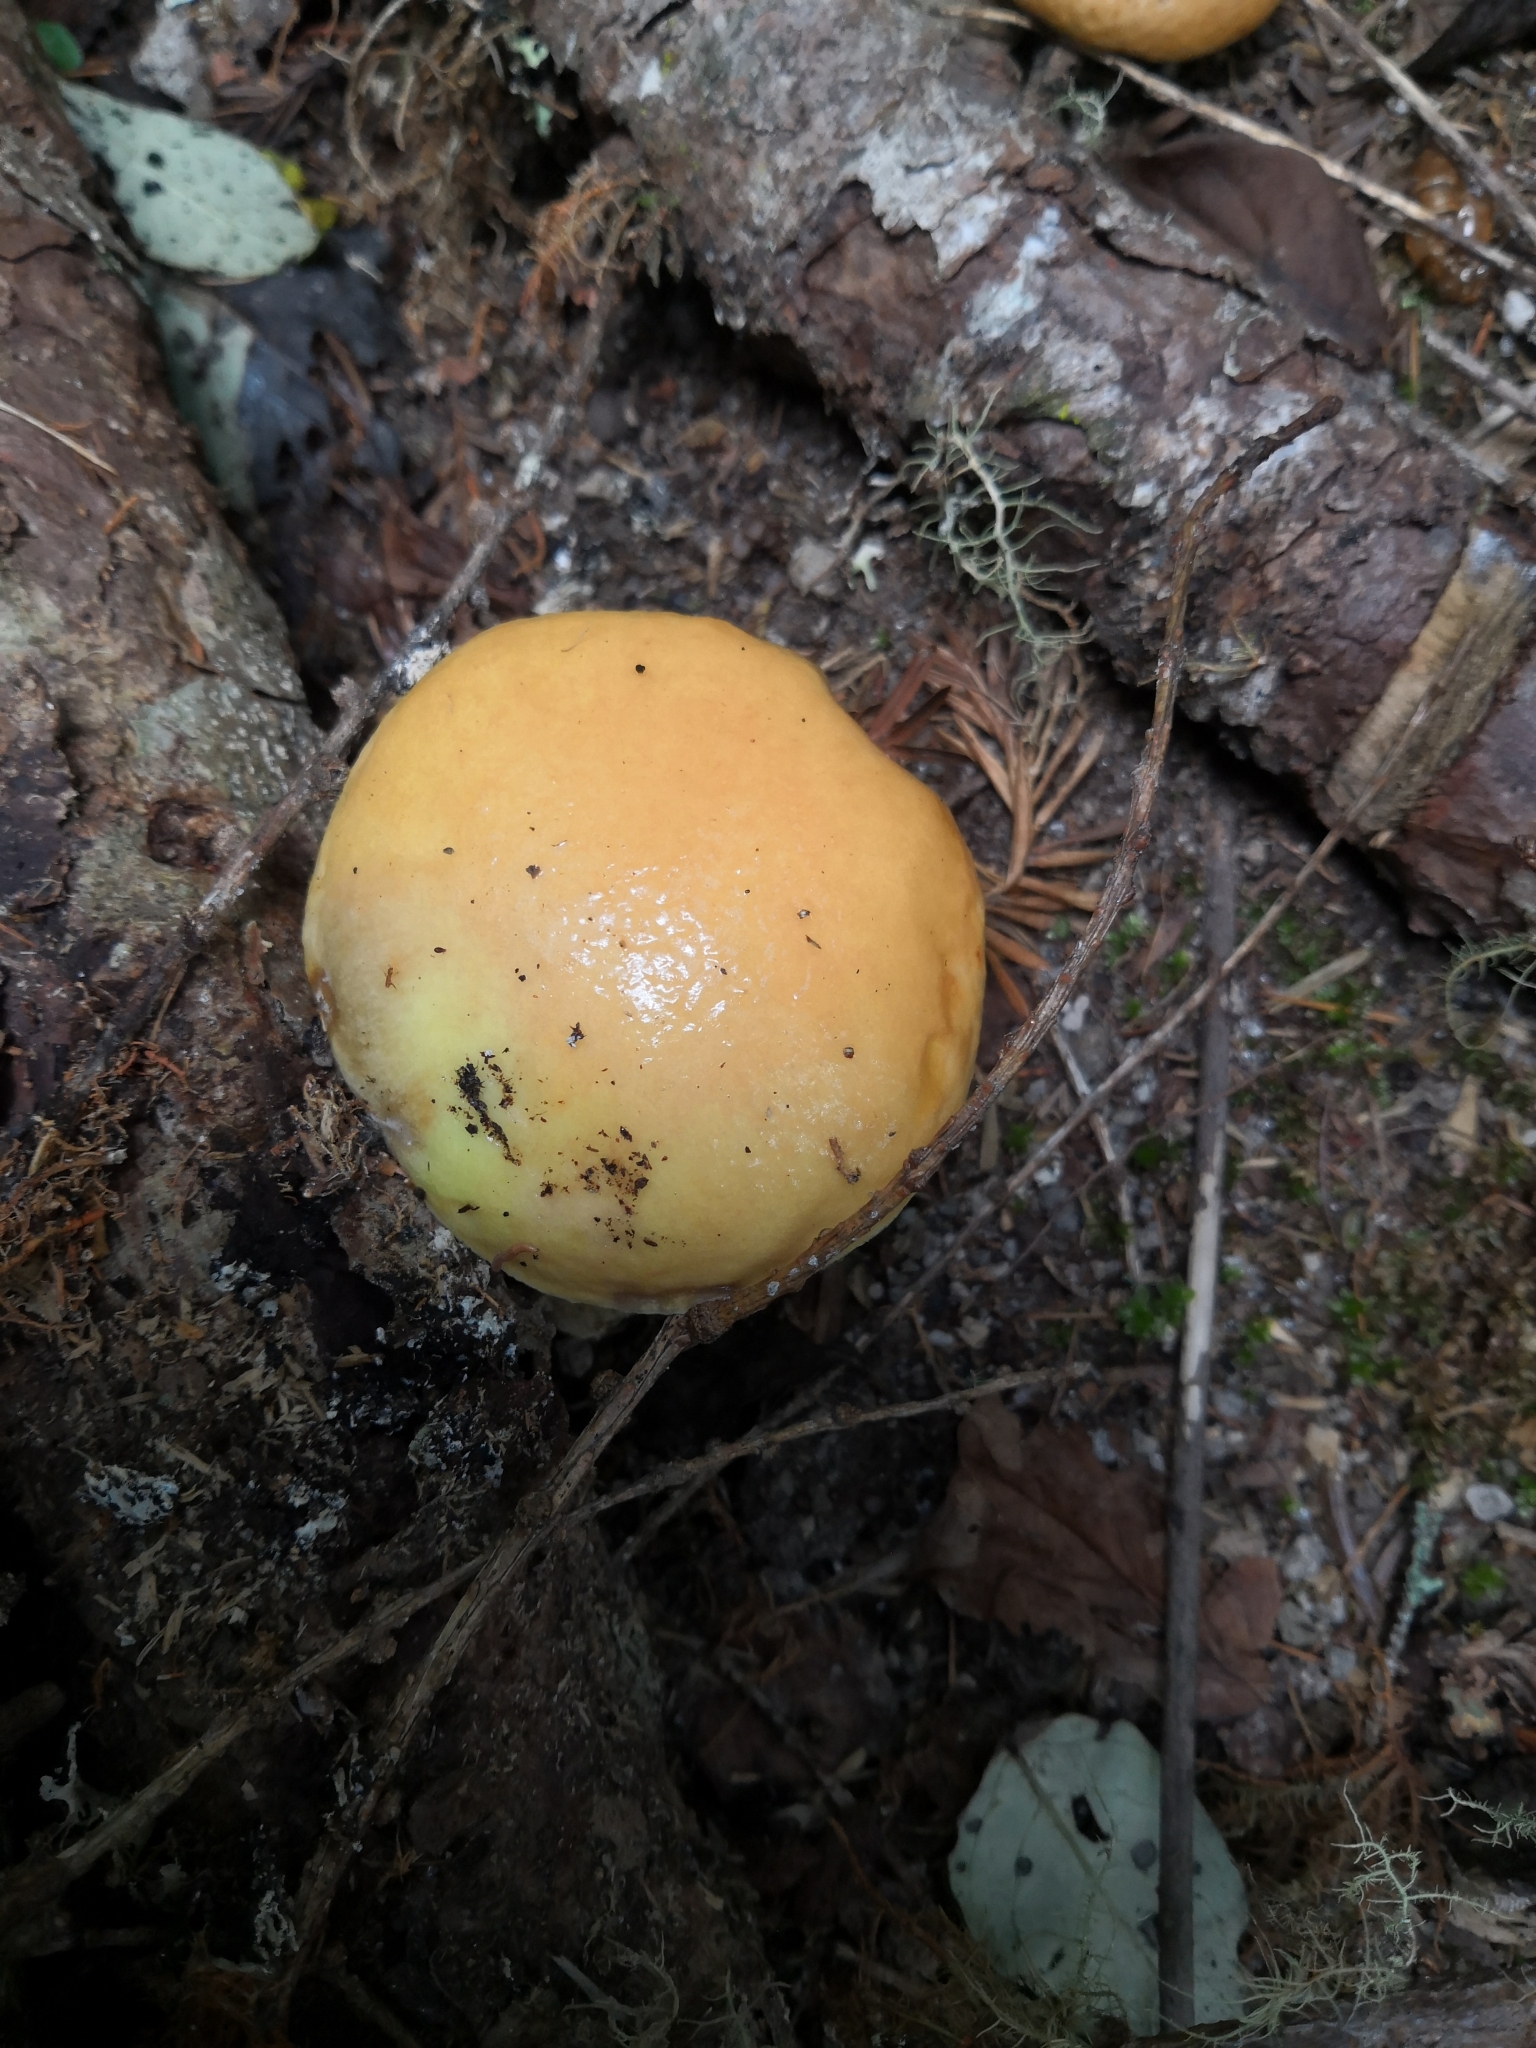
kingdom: Fungi
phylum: Basidiomycota
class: Agaricomycetes
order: Boletales
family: Suillaceae
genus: Suillus
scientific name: Suillus grevillei
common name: Larch bolete
